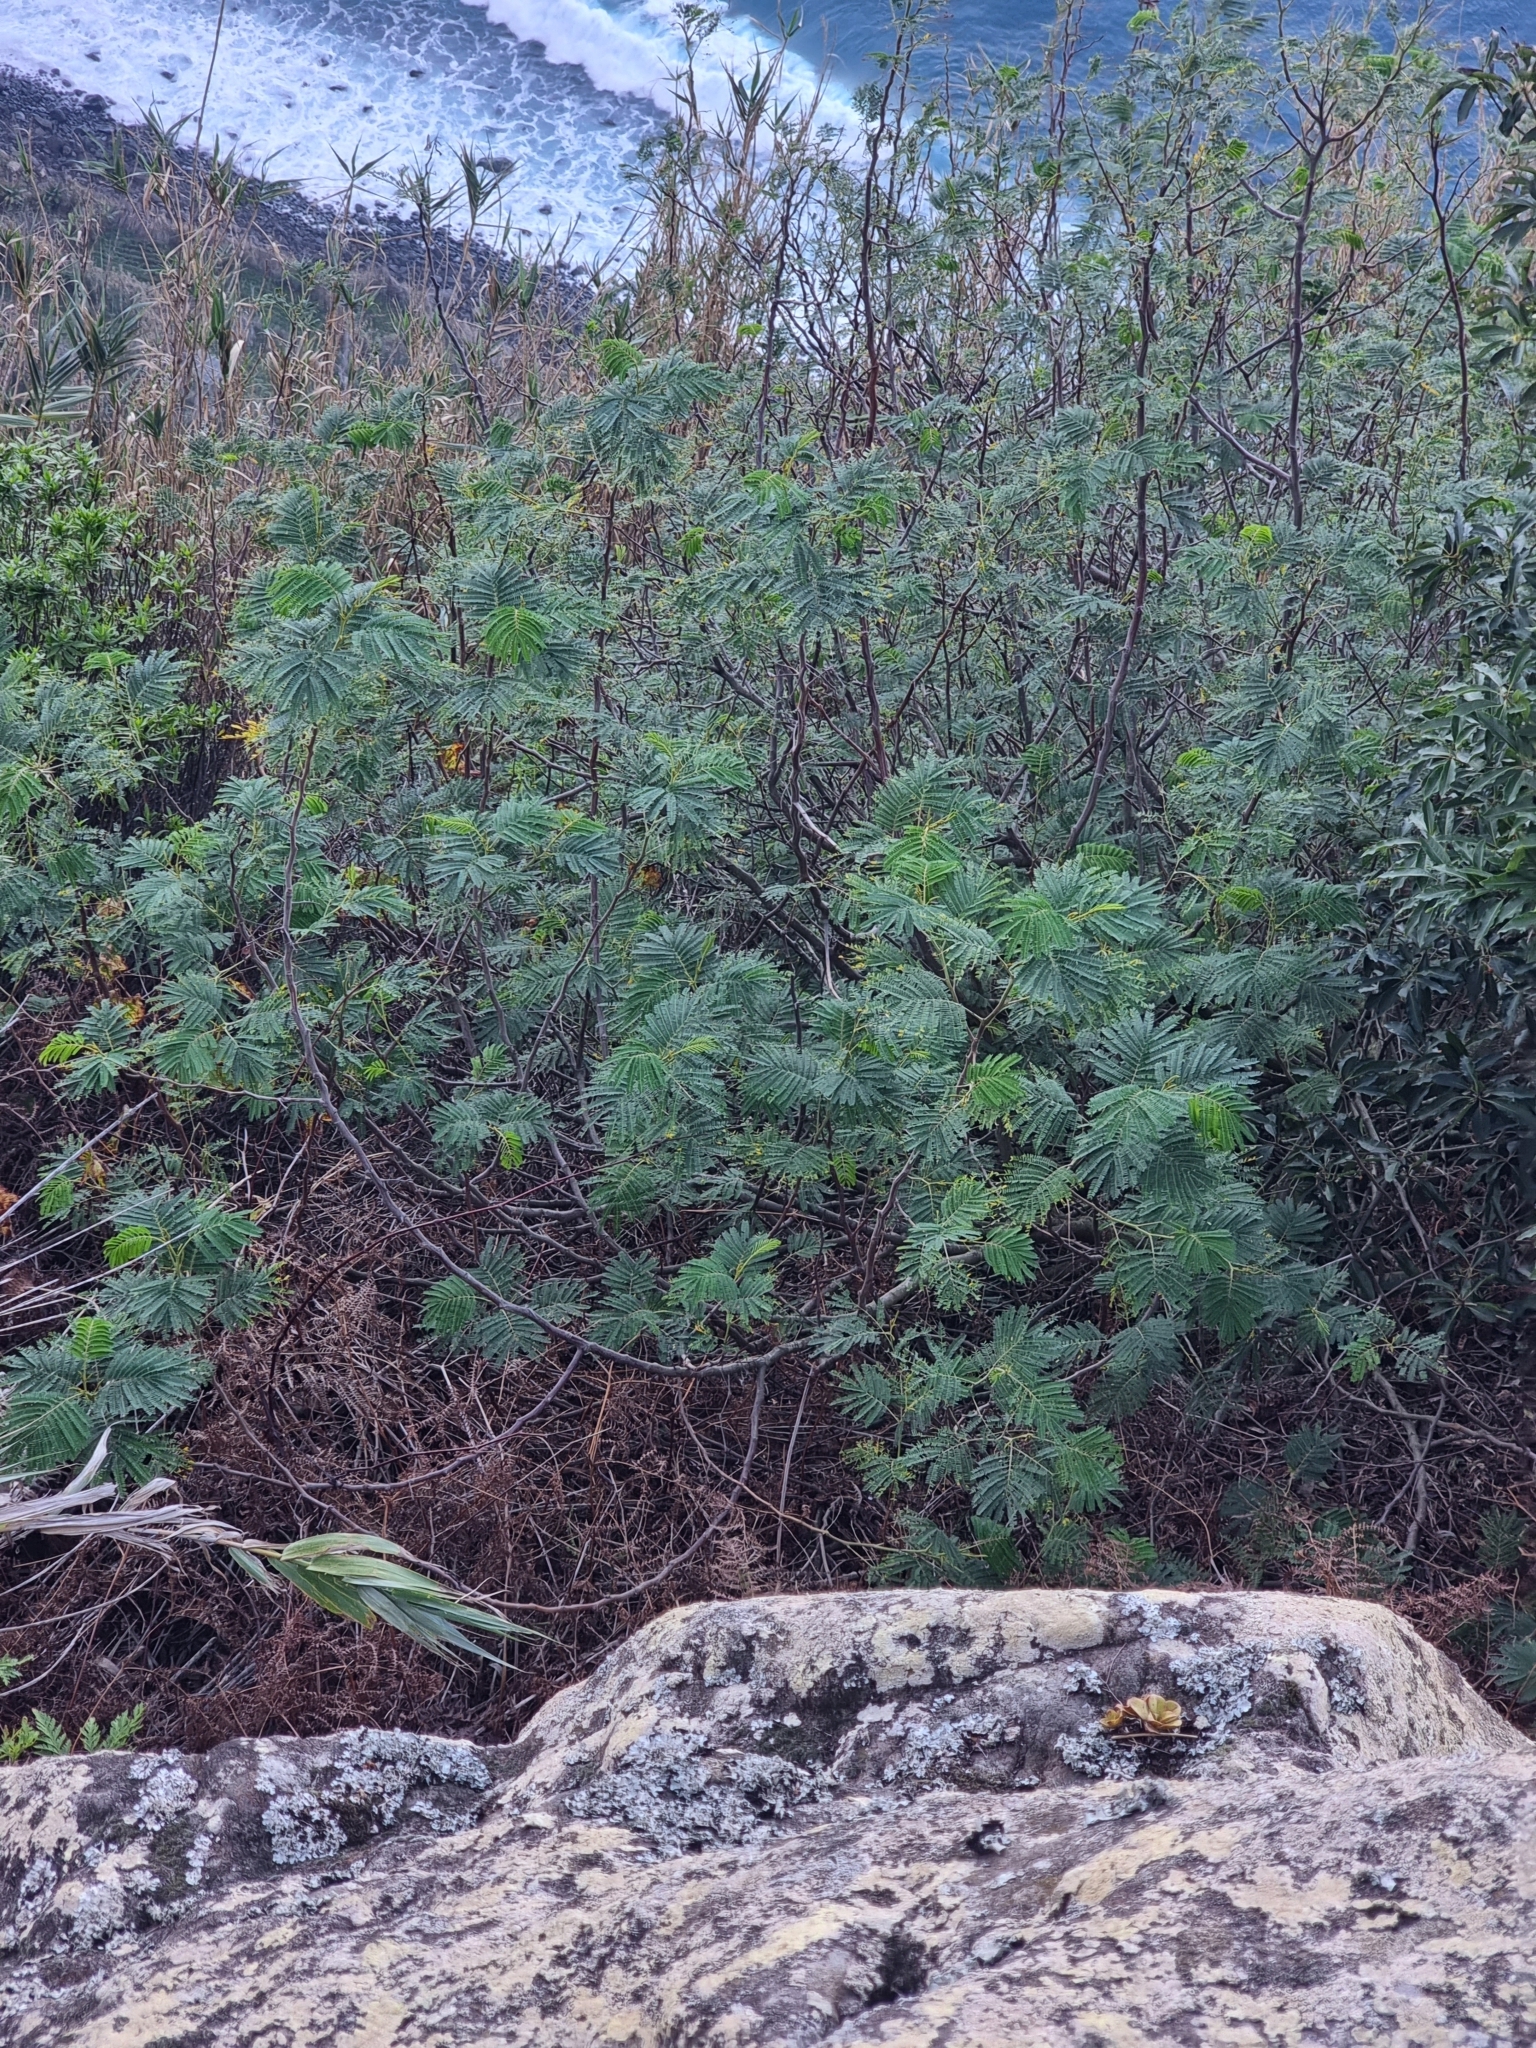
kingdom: Plantae
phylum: Tracheophyta
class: Magnoliopsida
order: Fabales
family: Fabaceae
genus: Paraserianthes
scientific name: Paraserianthes lophantha
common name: Plume albizia
